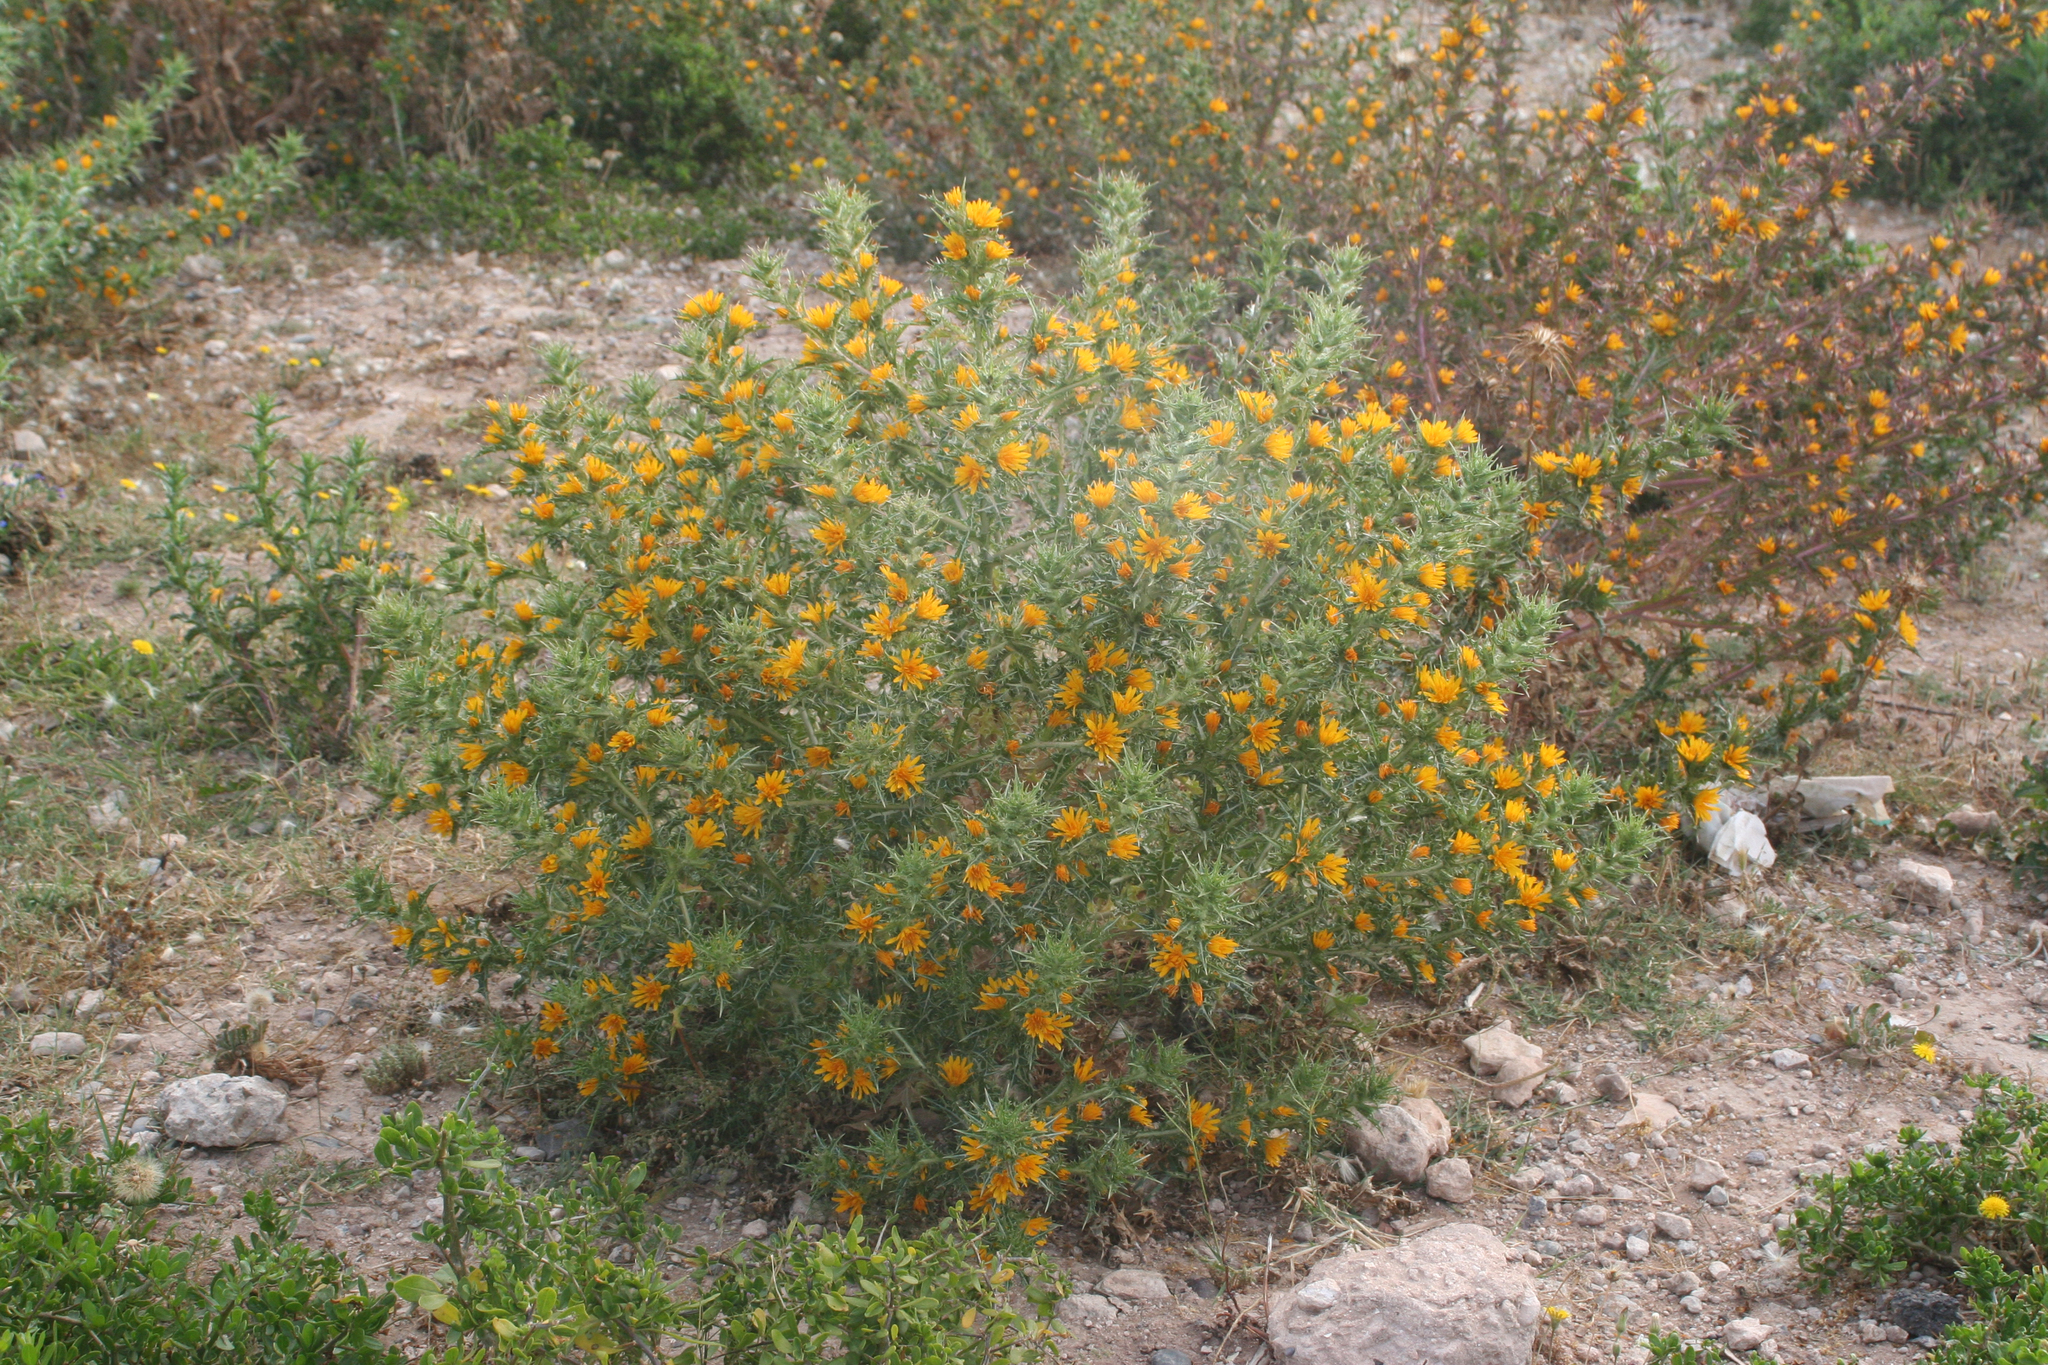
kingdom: Plantae
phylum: Tracheophyta
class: Magnoliopsida
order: Asterales
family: Asteraceae
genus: Scolymus
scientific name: Scolymus hispanicus
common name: Golden thistle
